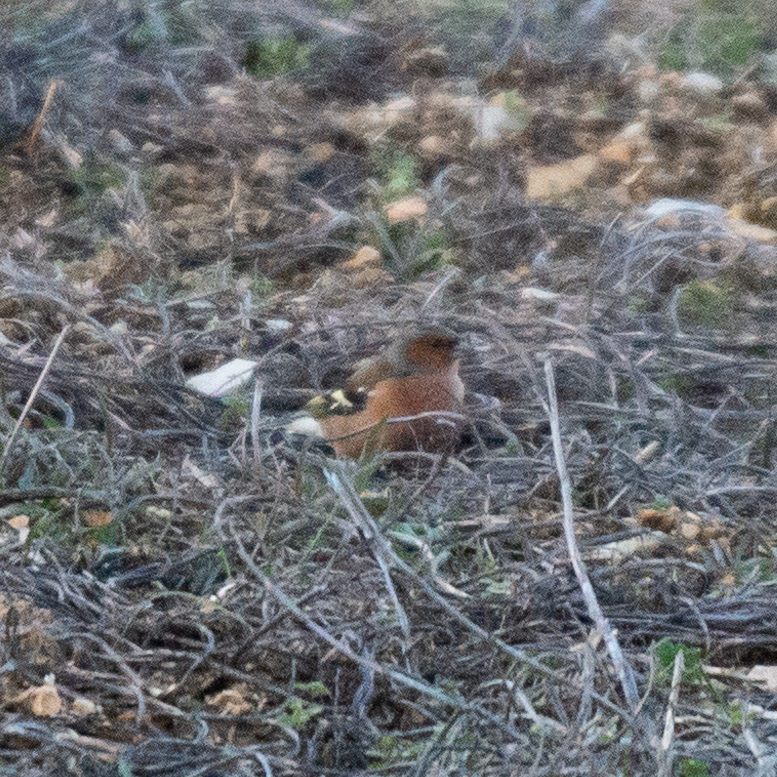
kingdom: Animalia
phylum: Chordata
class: Aves
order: Passeriformes
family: Fringillidae
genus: Fringilla
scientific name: Fringilla coelebs
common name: Common chaffinch
